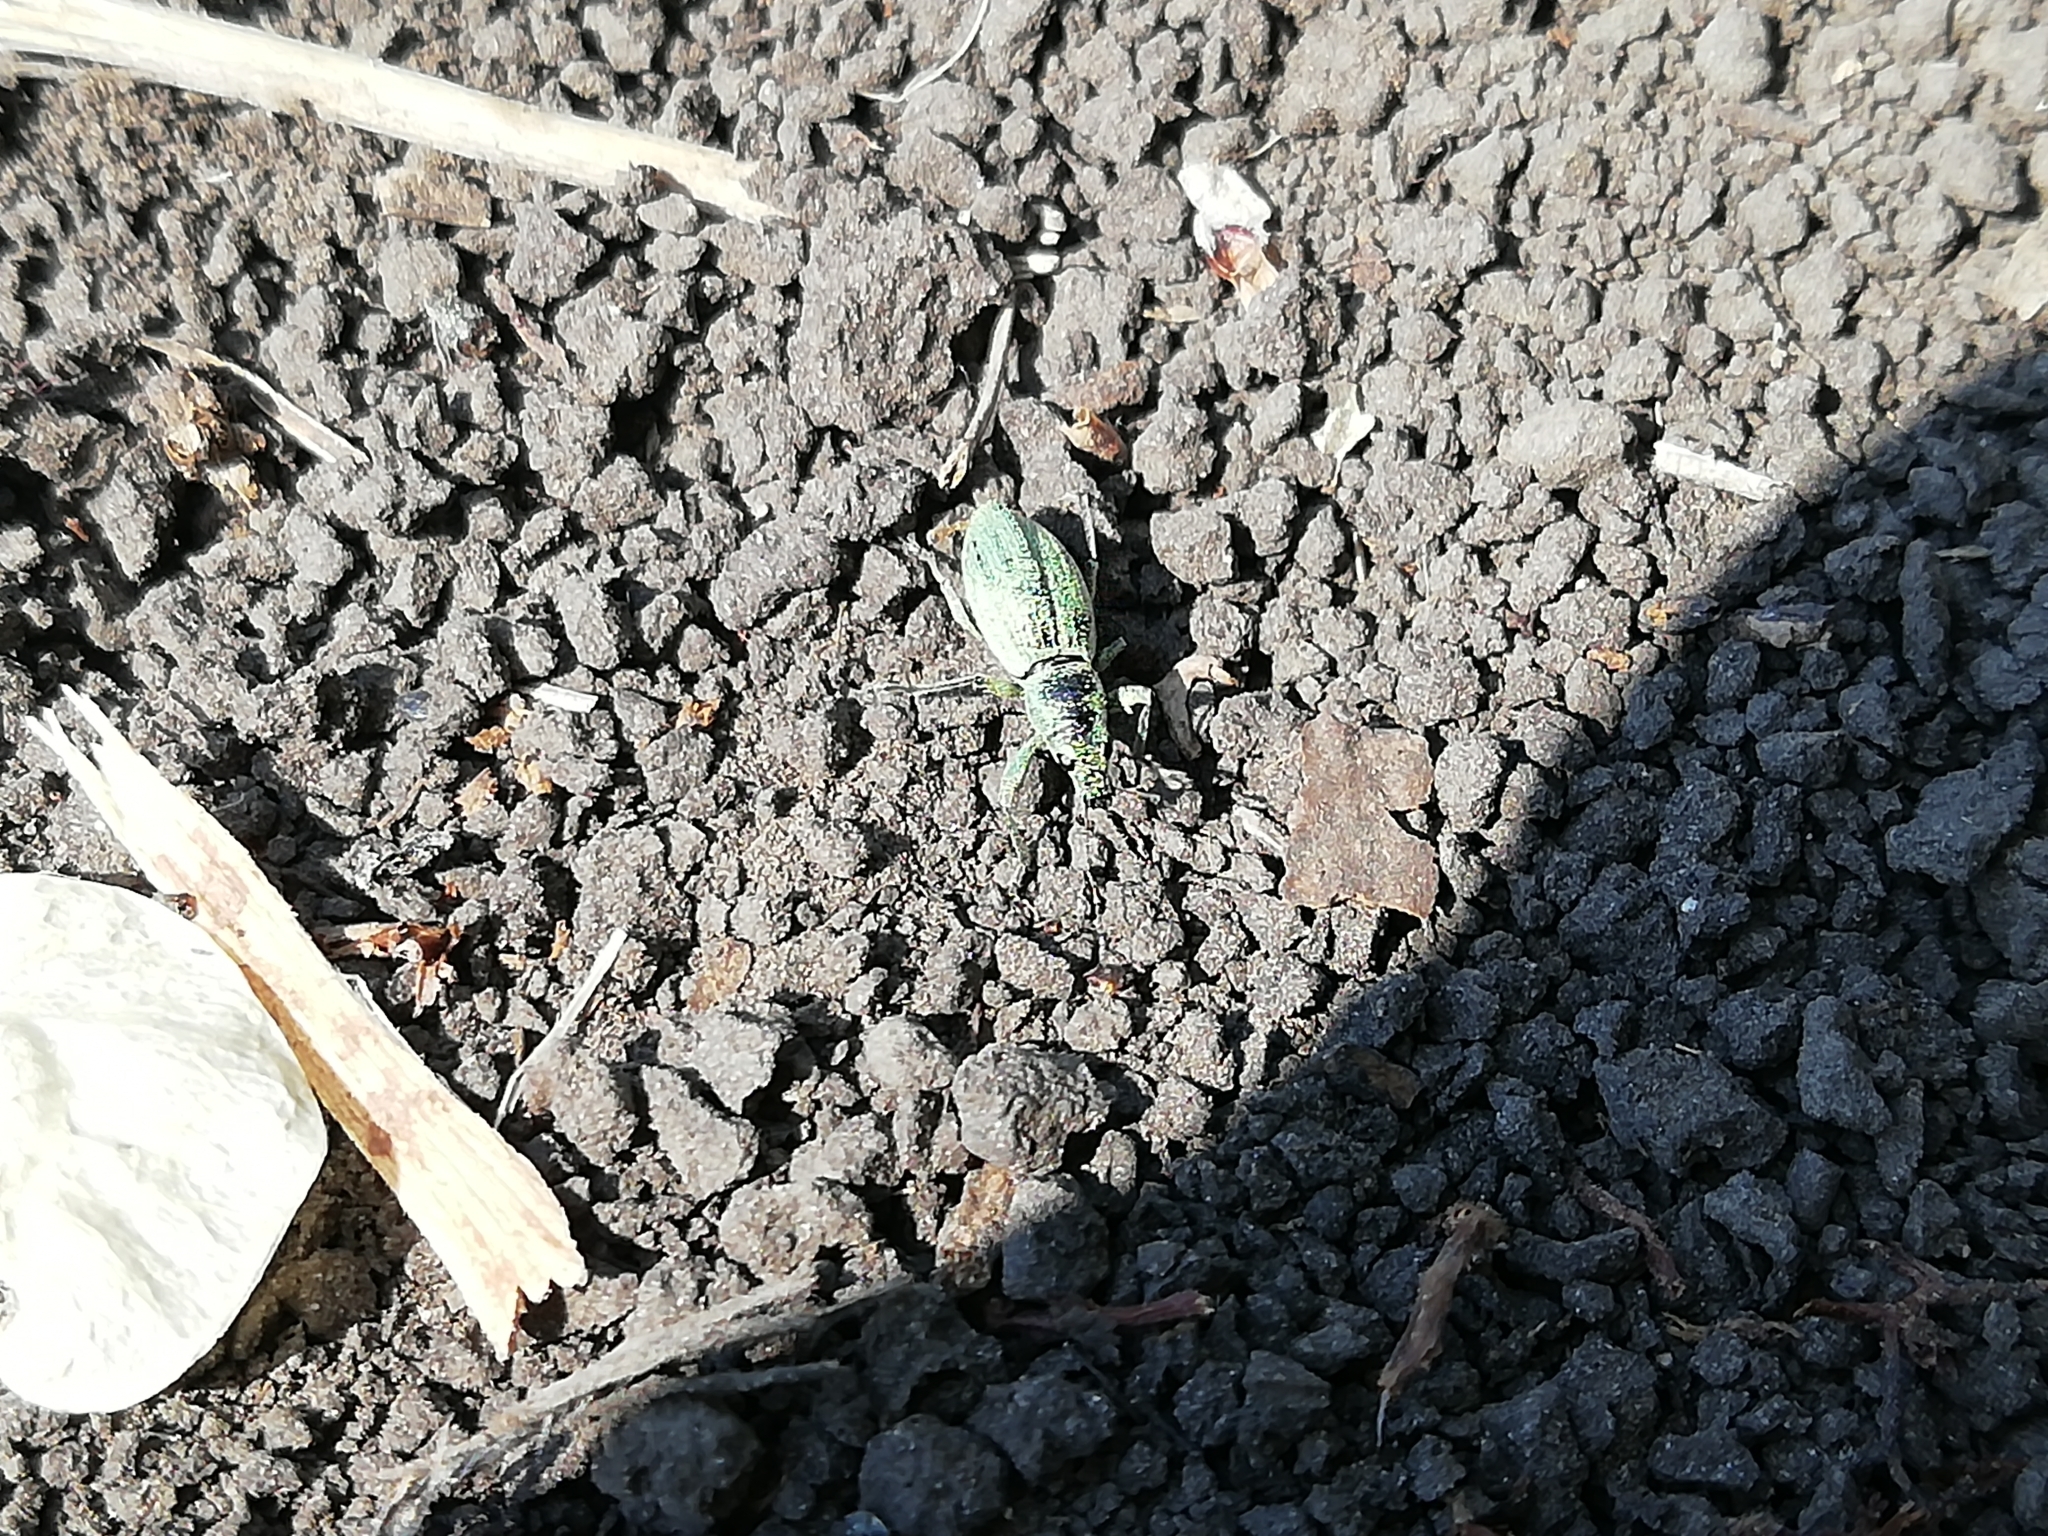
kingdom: Animalia
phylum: Arthropoda
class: Insecta
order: Coleoptera
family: Curculionidae
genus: Eusomus
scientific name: Eusomus ovulum
